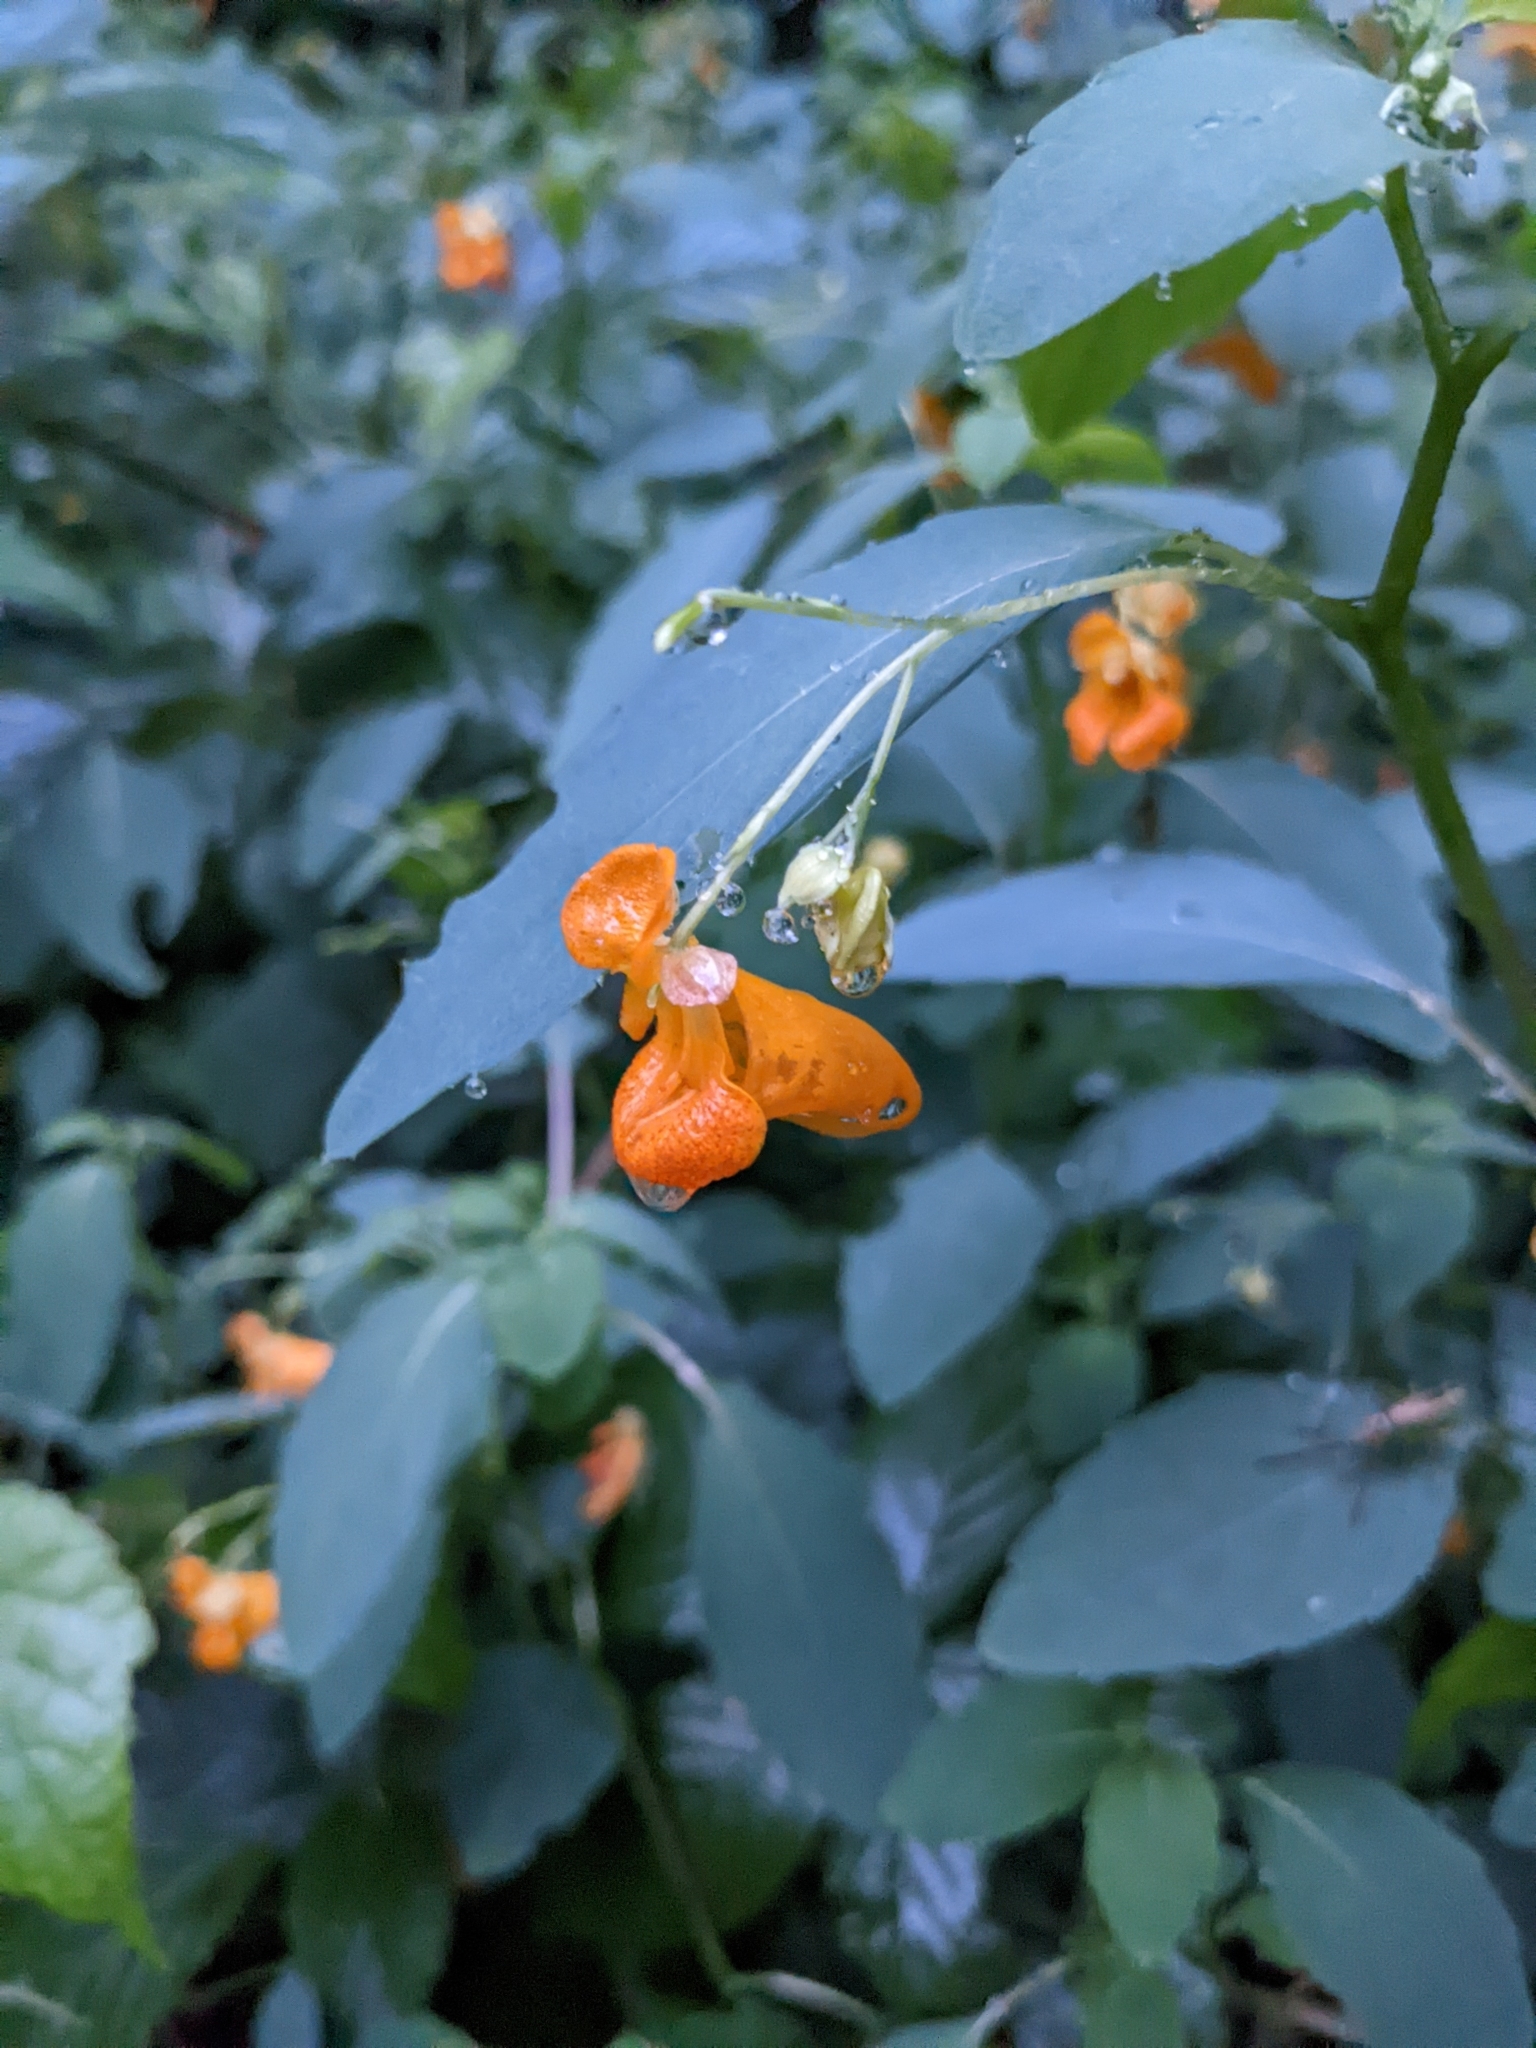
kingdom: Plantae
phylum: Tracheophyta
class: Magnoliopsida
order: Ericales
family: Balsaminaceae
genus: Impatiens
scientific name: Impatiens capensis
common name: Orange balsam
